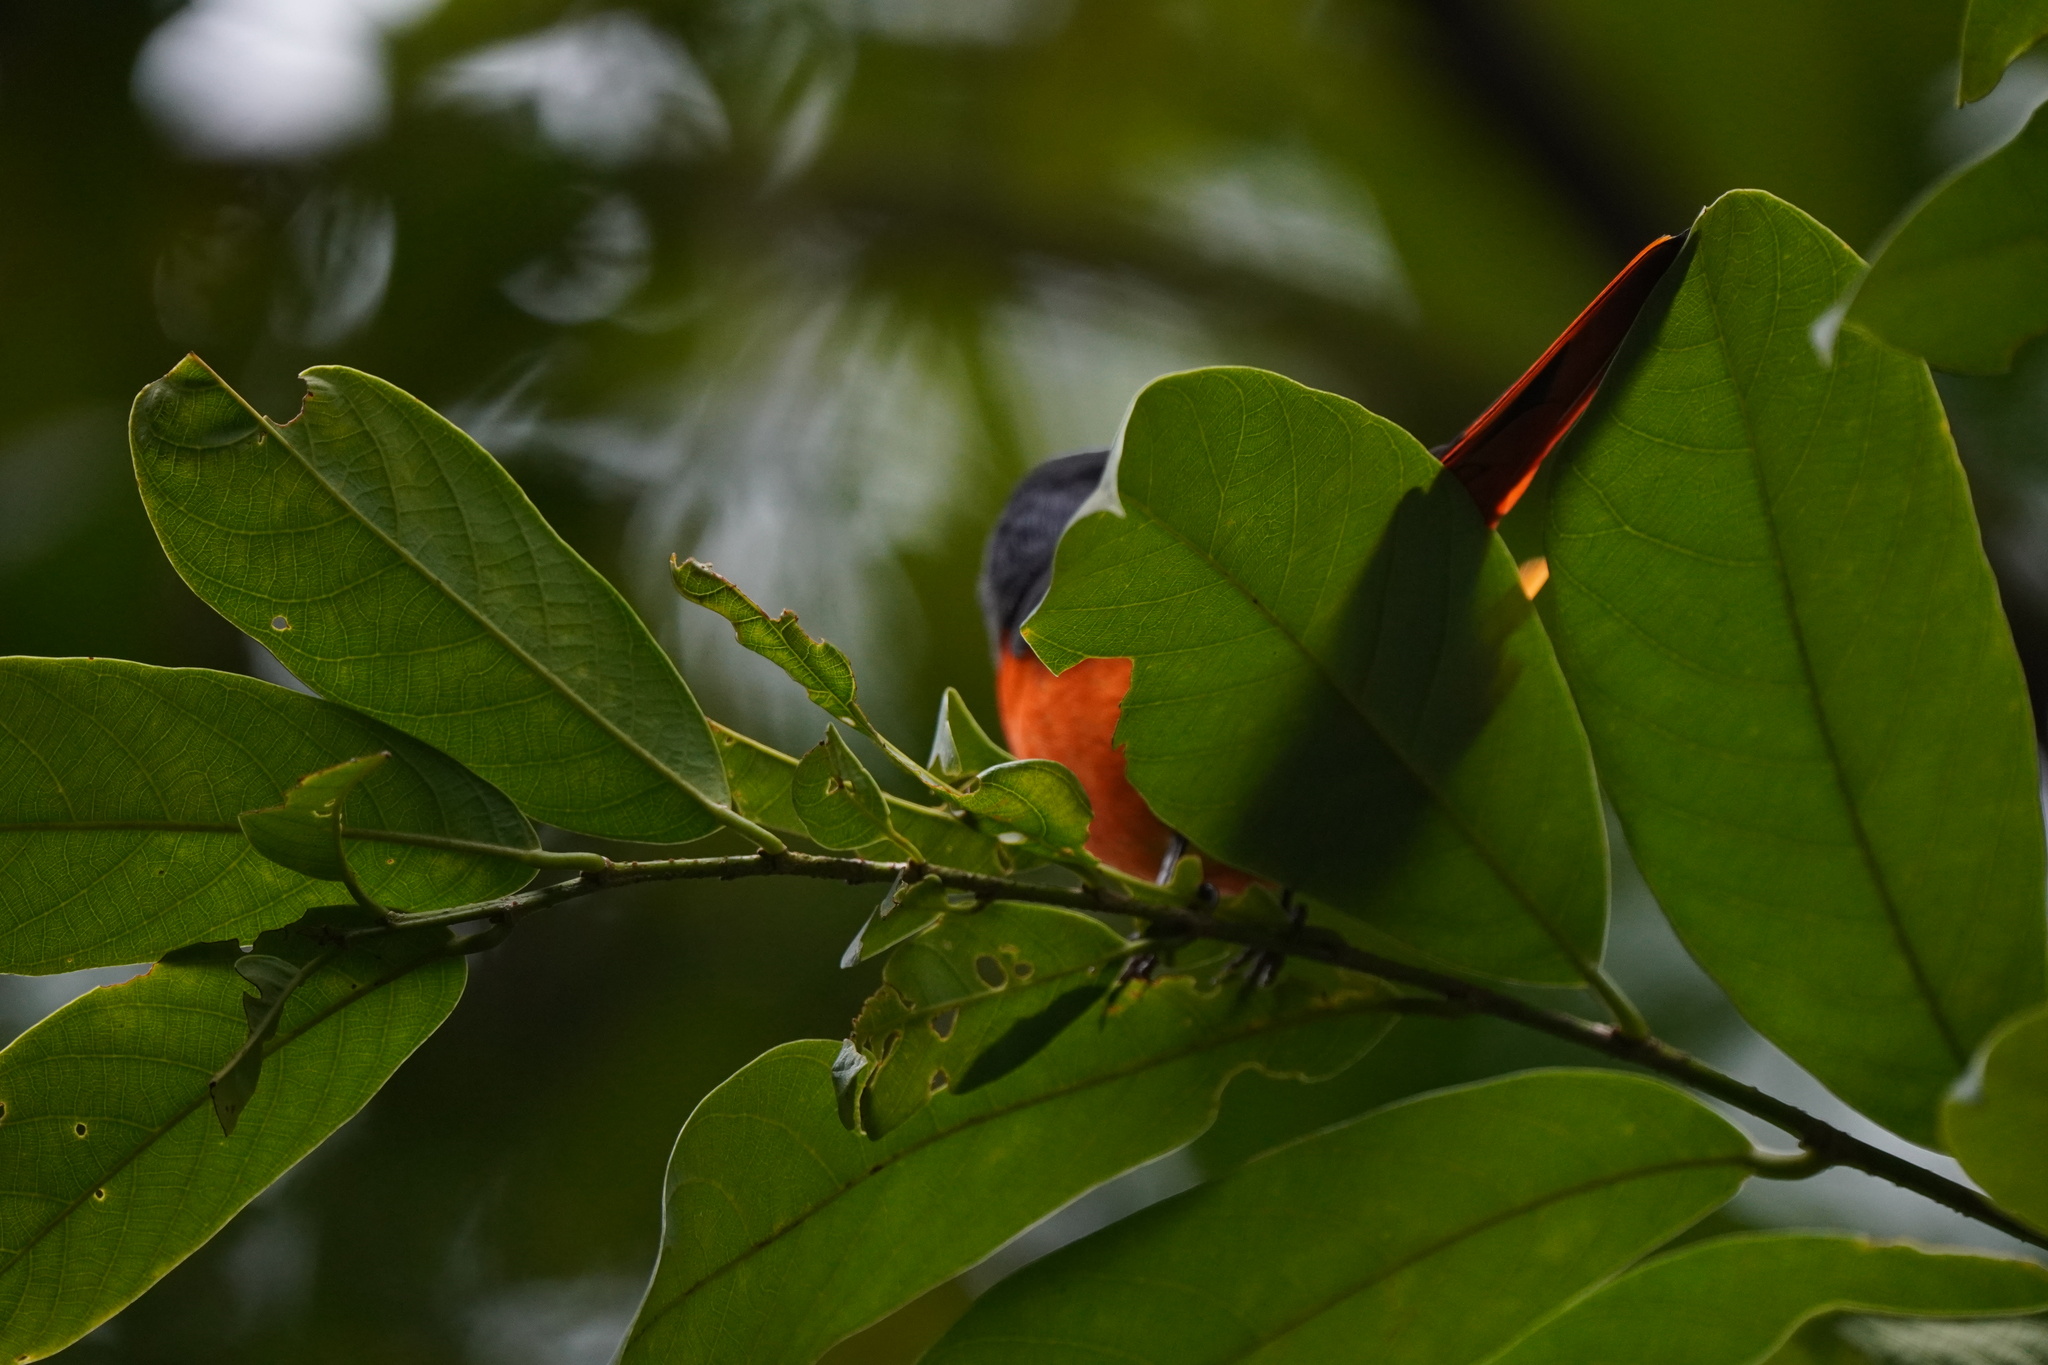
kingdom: Animalia
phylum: Chordata
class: Aves
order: Passeriformes
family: Campephagidae
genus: Pericrocotus
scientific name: Pericrocotus solaris
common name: Grey-chinned minivet
